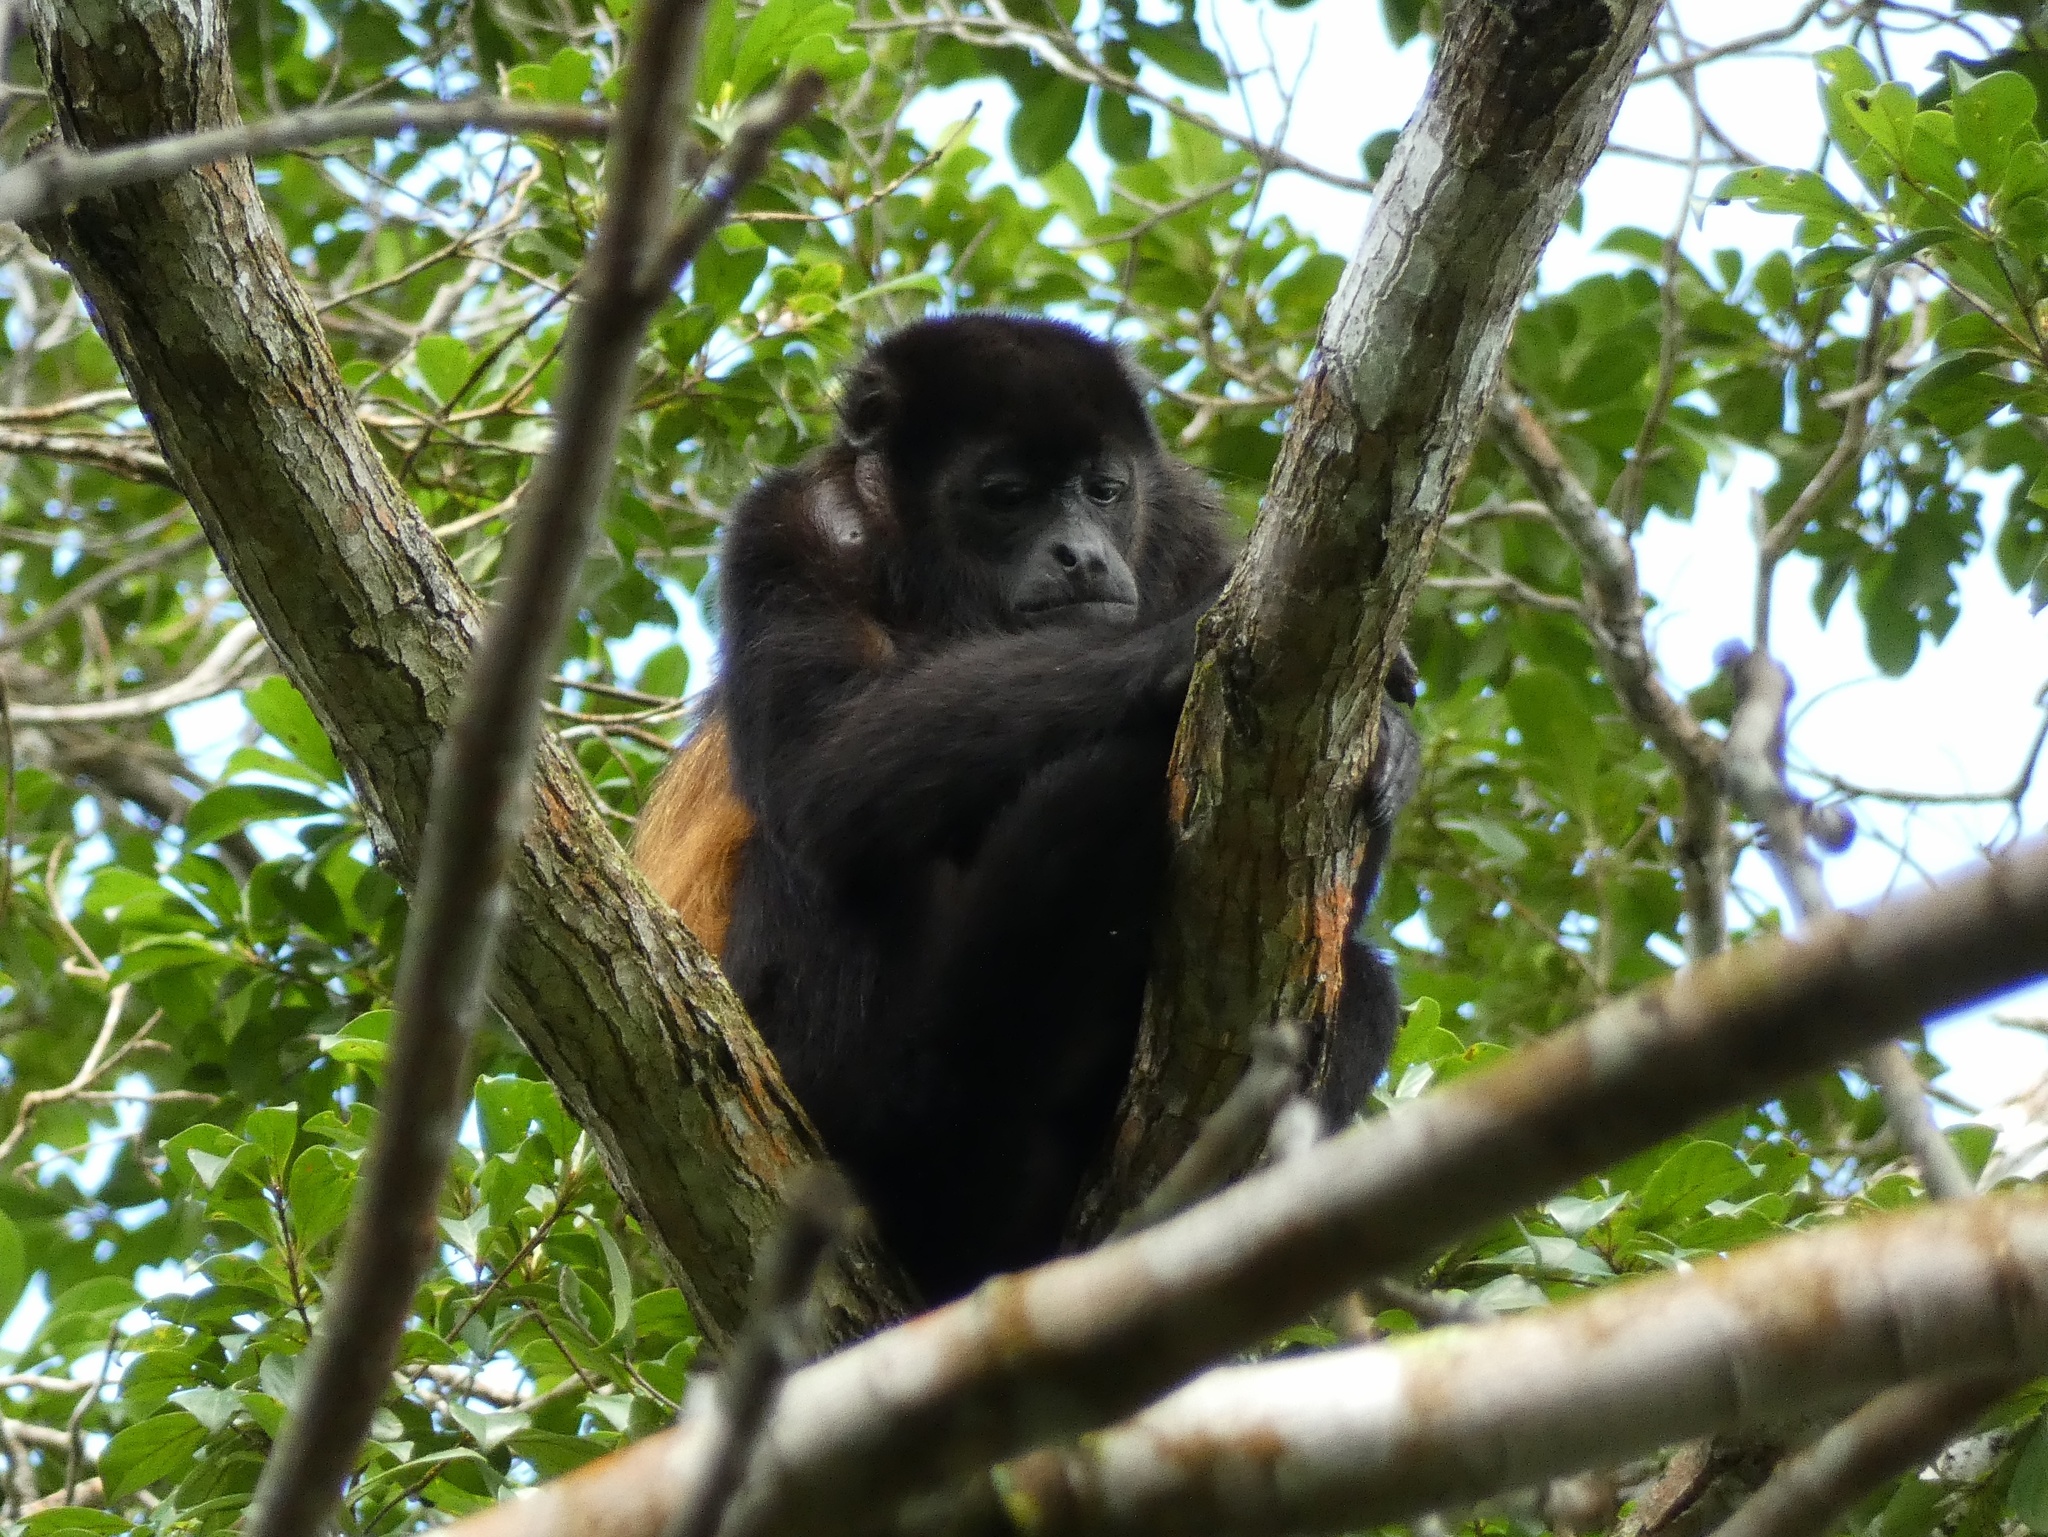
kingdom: Animalia
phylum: Chordata
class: Mammalia
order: Primates
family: Atelidae
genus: Alouatta
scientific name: Alouatta palliata
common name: Mantled howler
